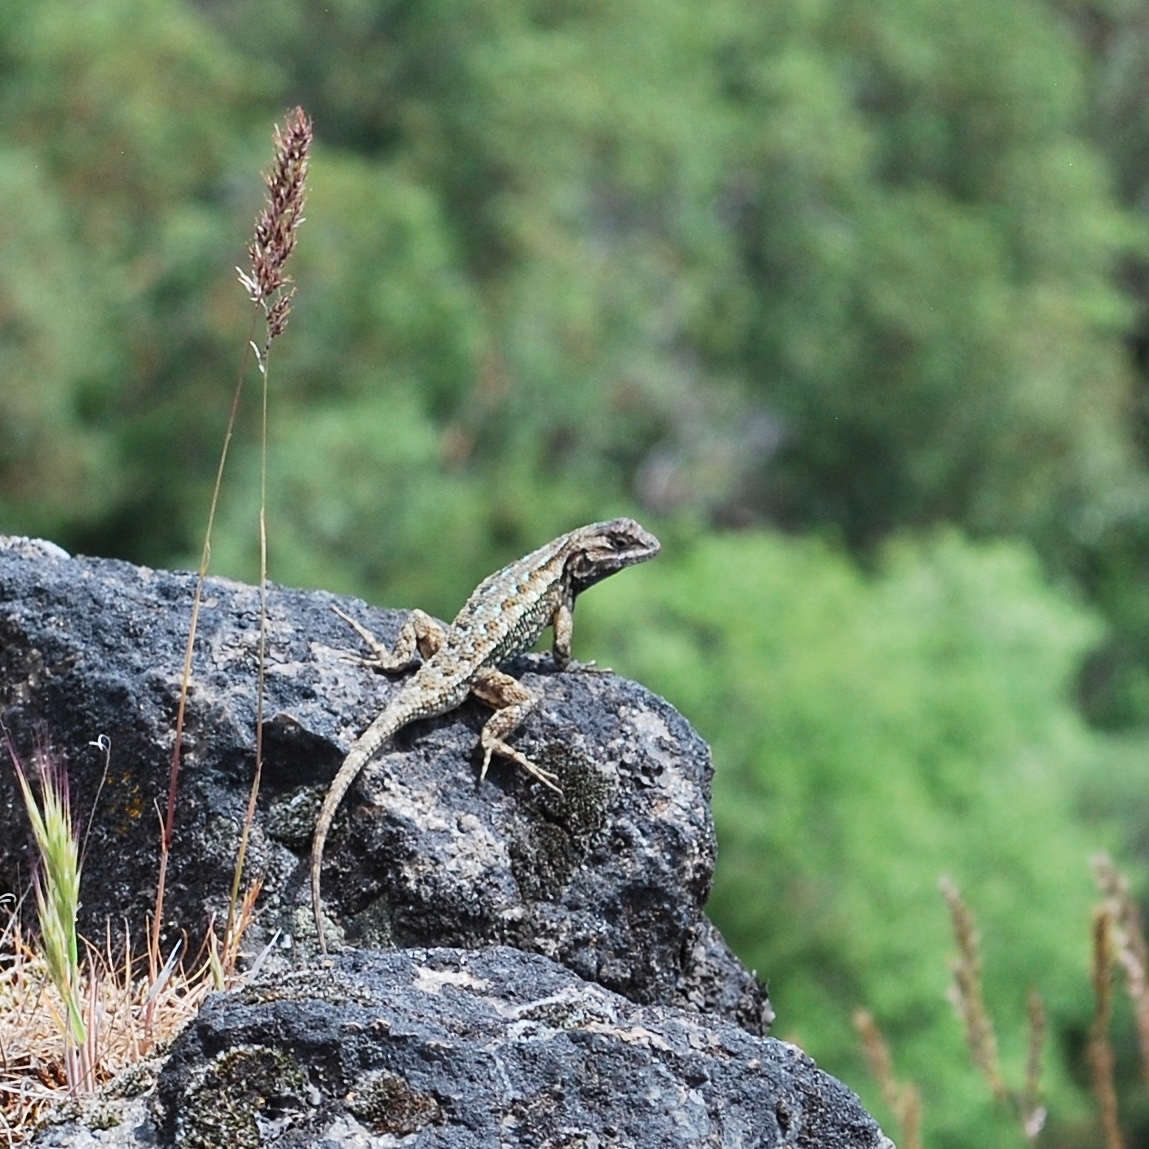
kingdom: Animalia
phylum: Chordata
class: Squamata
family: Phrynosomatidae
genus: Sceloporus
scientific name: Sceloporus occidentalis
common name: Western fence lizard
